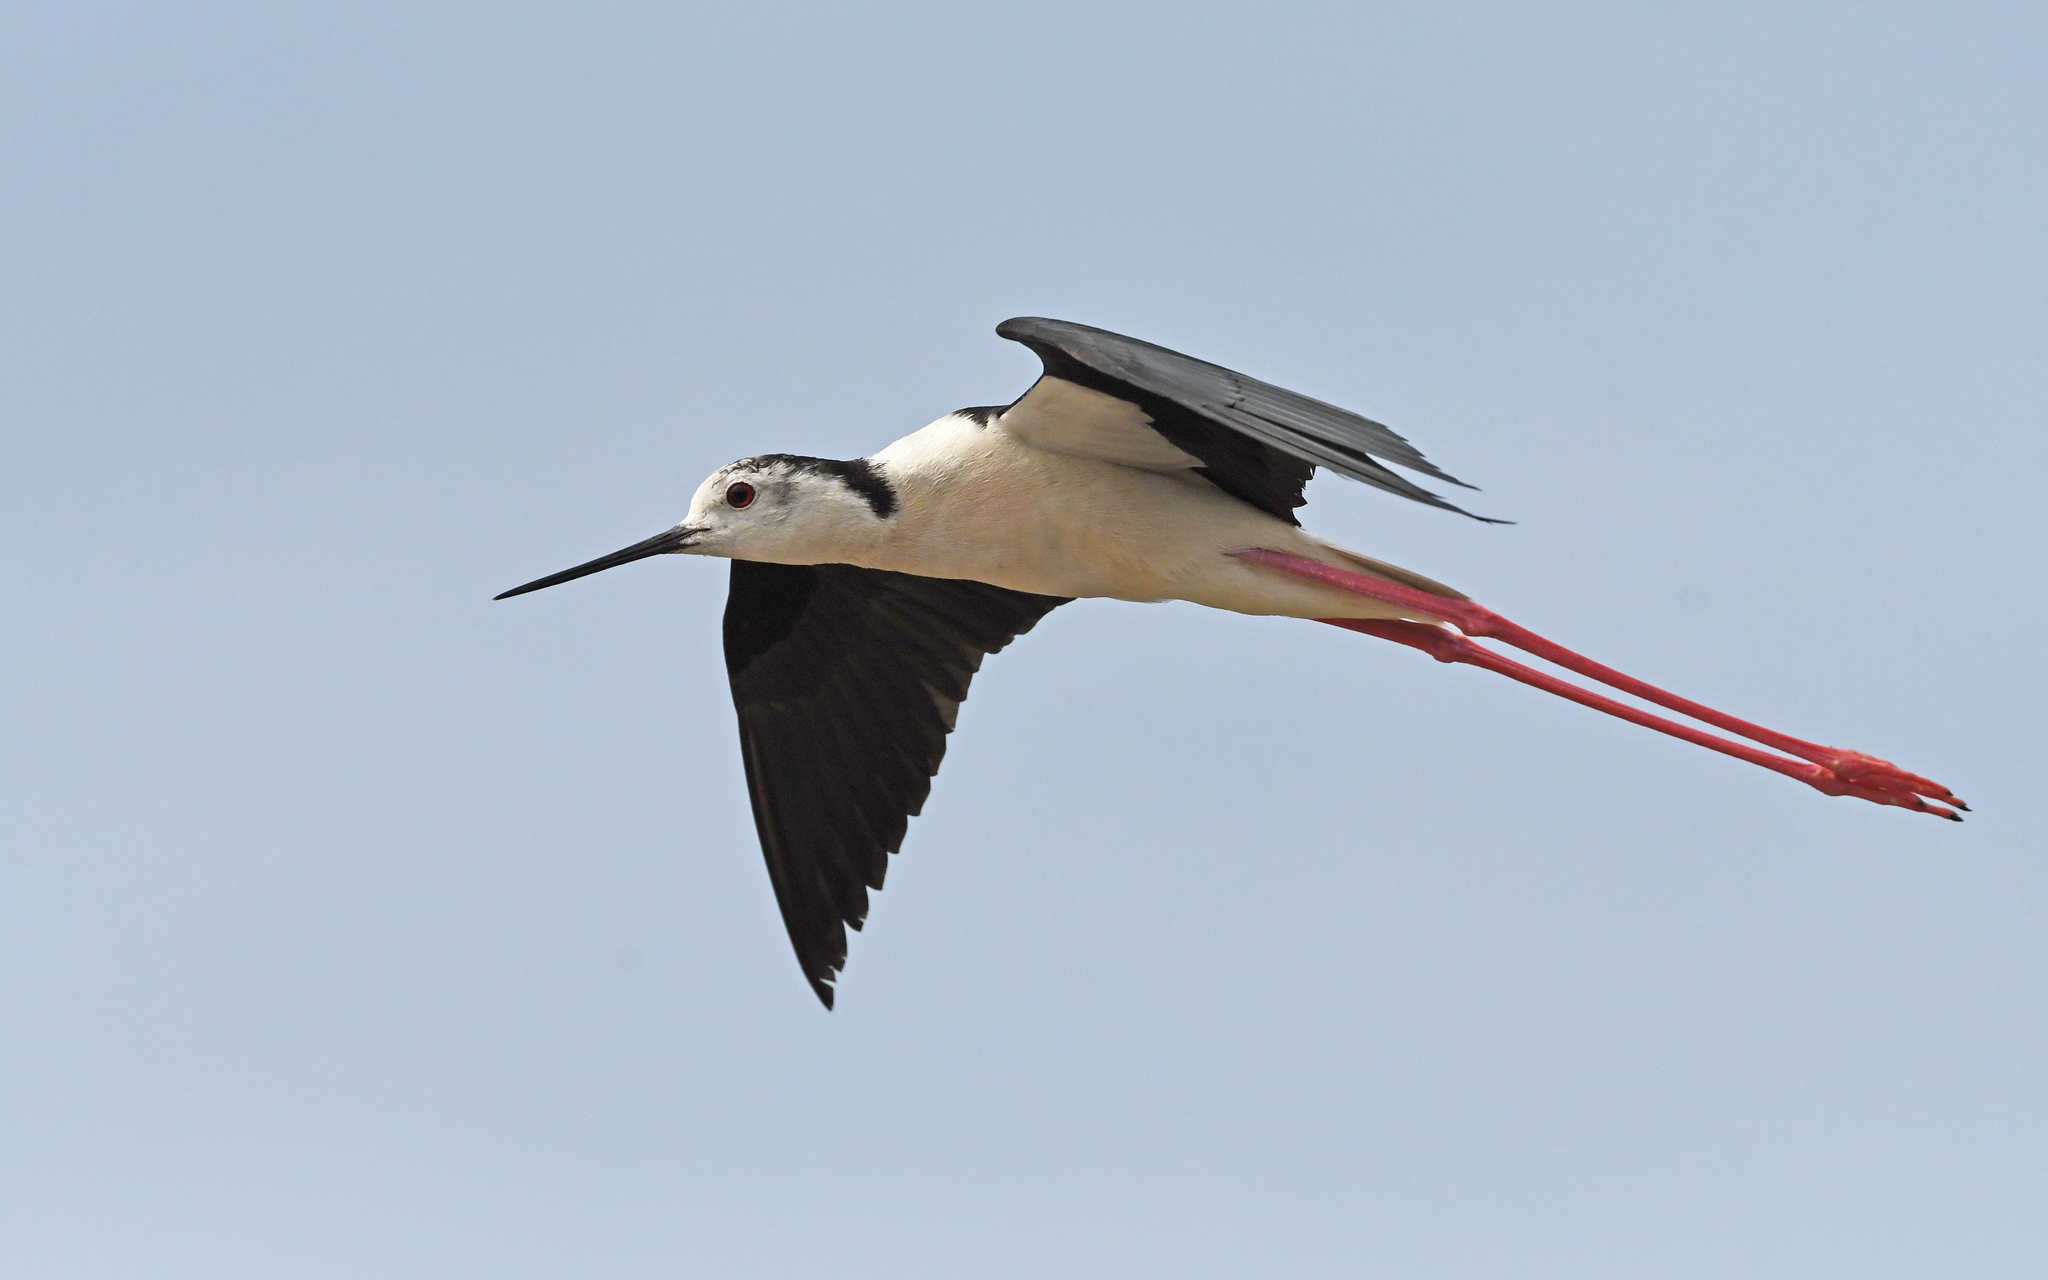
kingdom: Animalia
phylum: Chordata
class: Aves
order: Charadriiformes
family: Recurvirostridae
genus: Himantopus
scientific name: Himantopus himantopus
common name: Black-winged stilt
